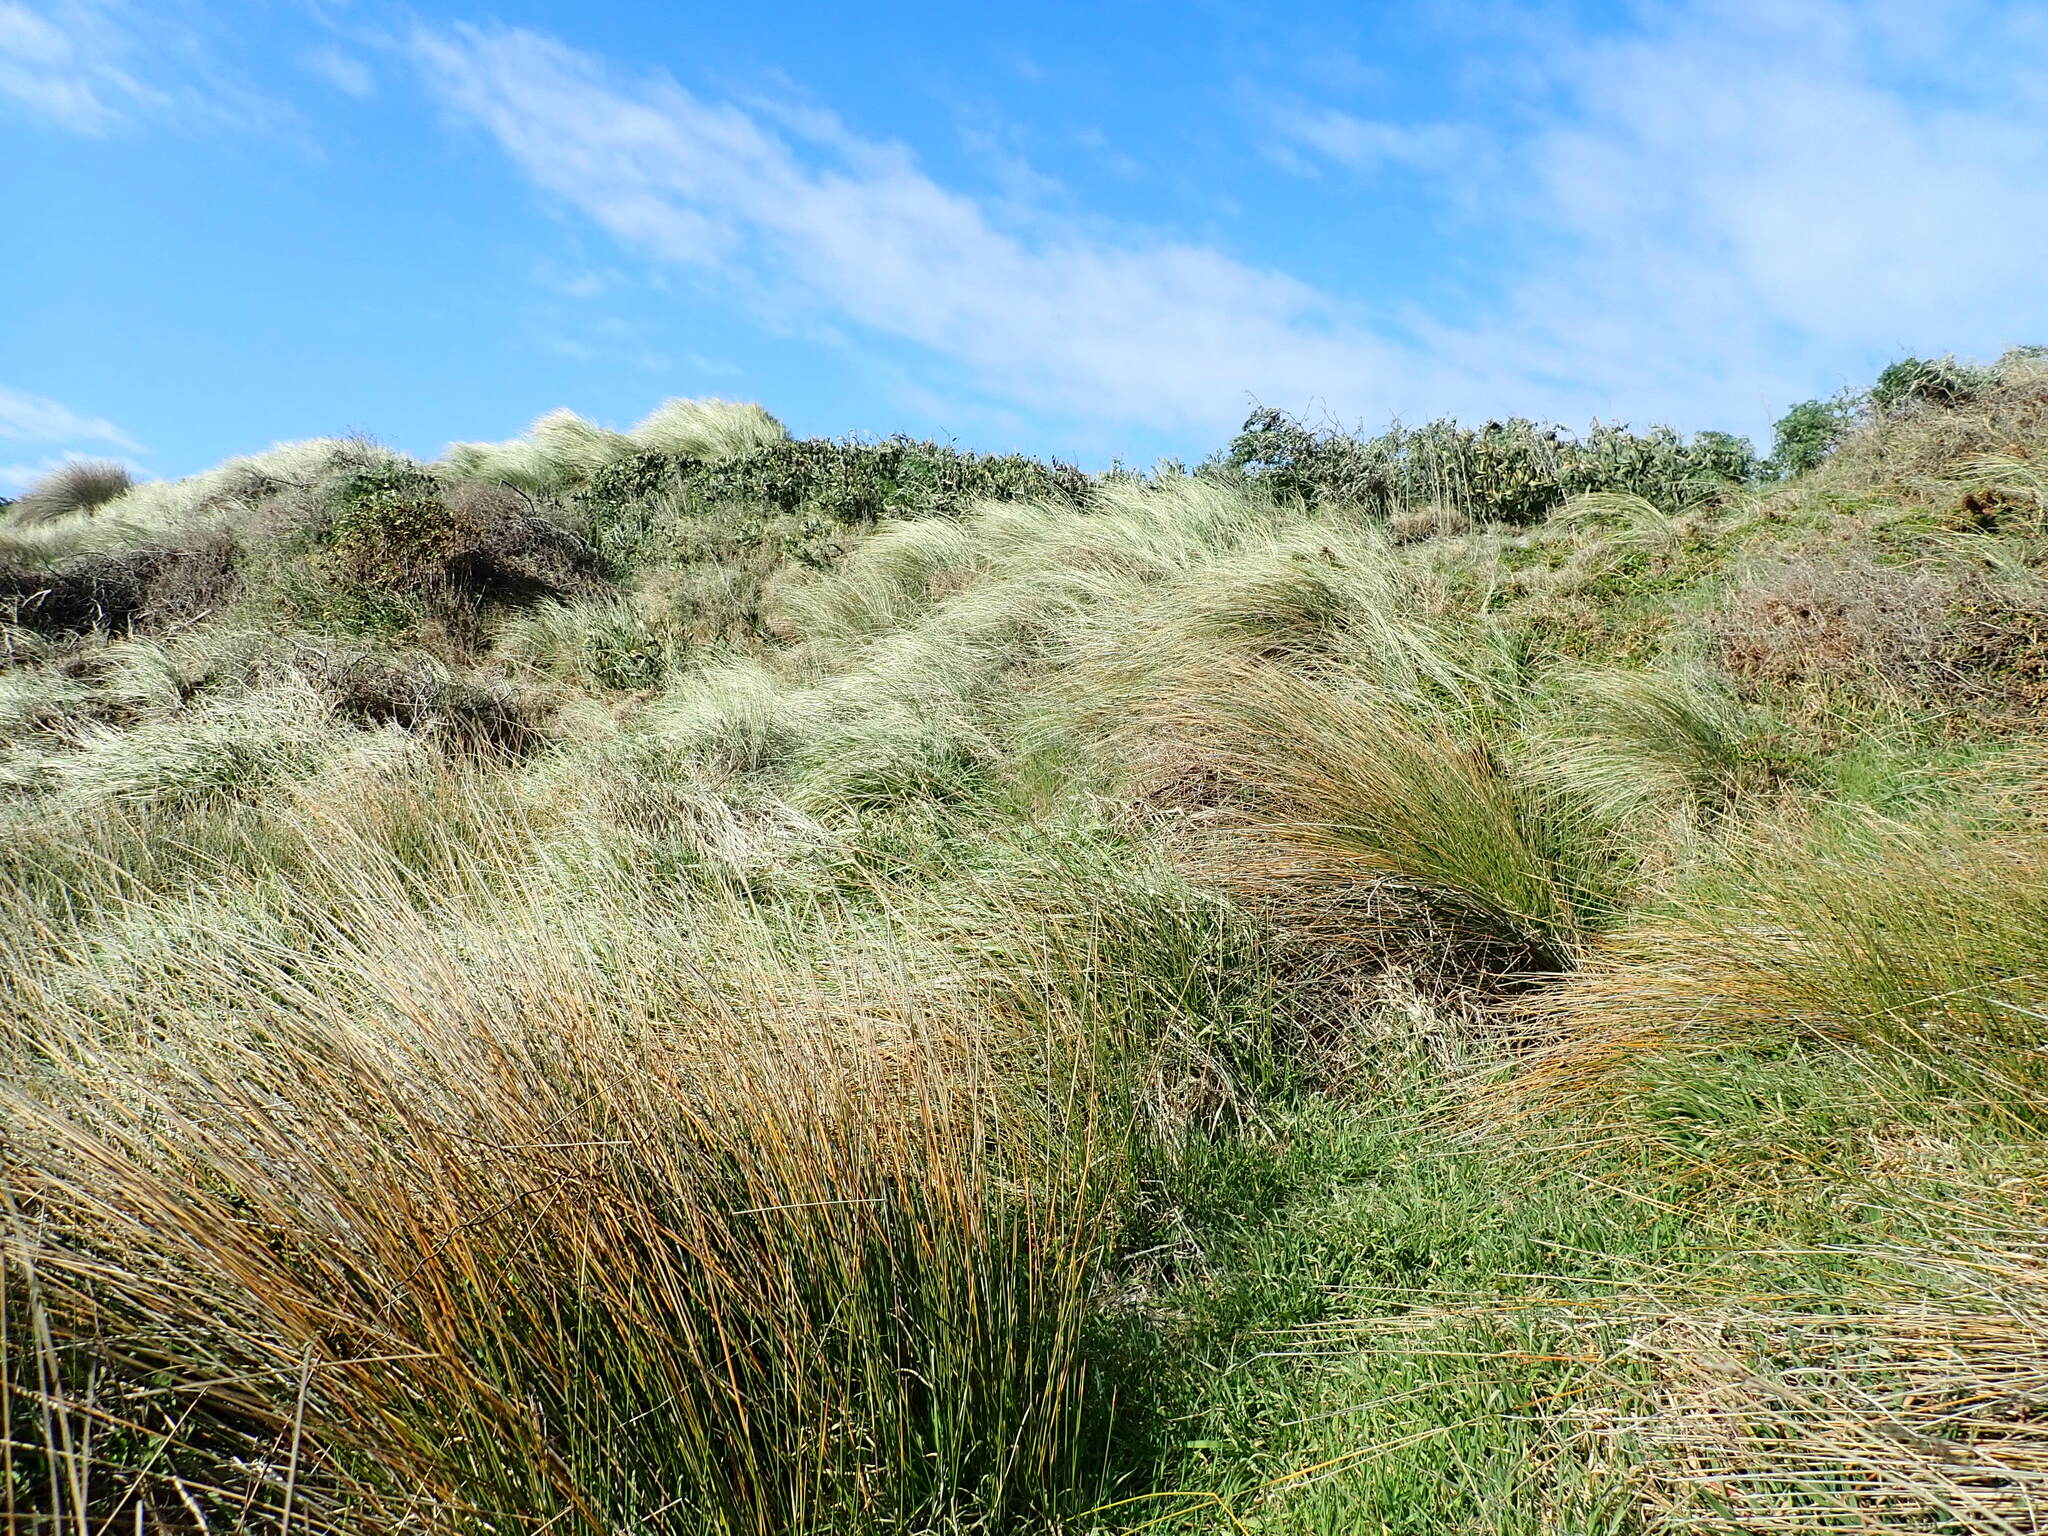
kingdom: Plantae
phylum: Tracheophyta
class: Magnoliopsida
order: Fabales
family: Fabaceae
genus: Acacia
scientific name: Acacia longifolia
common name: Sydney golden wattle
